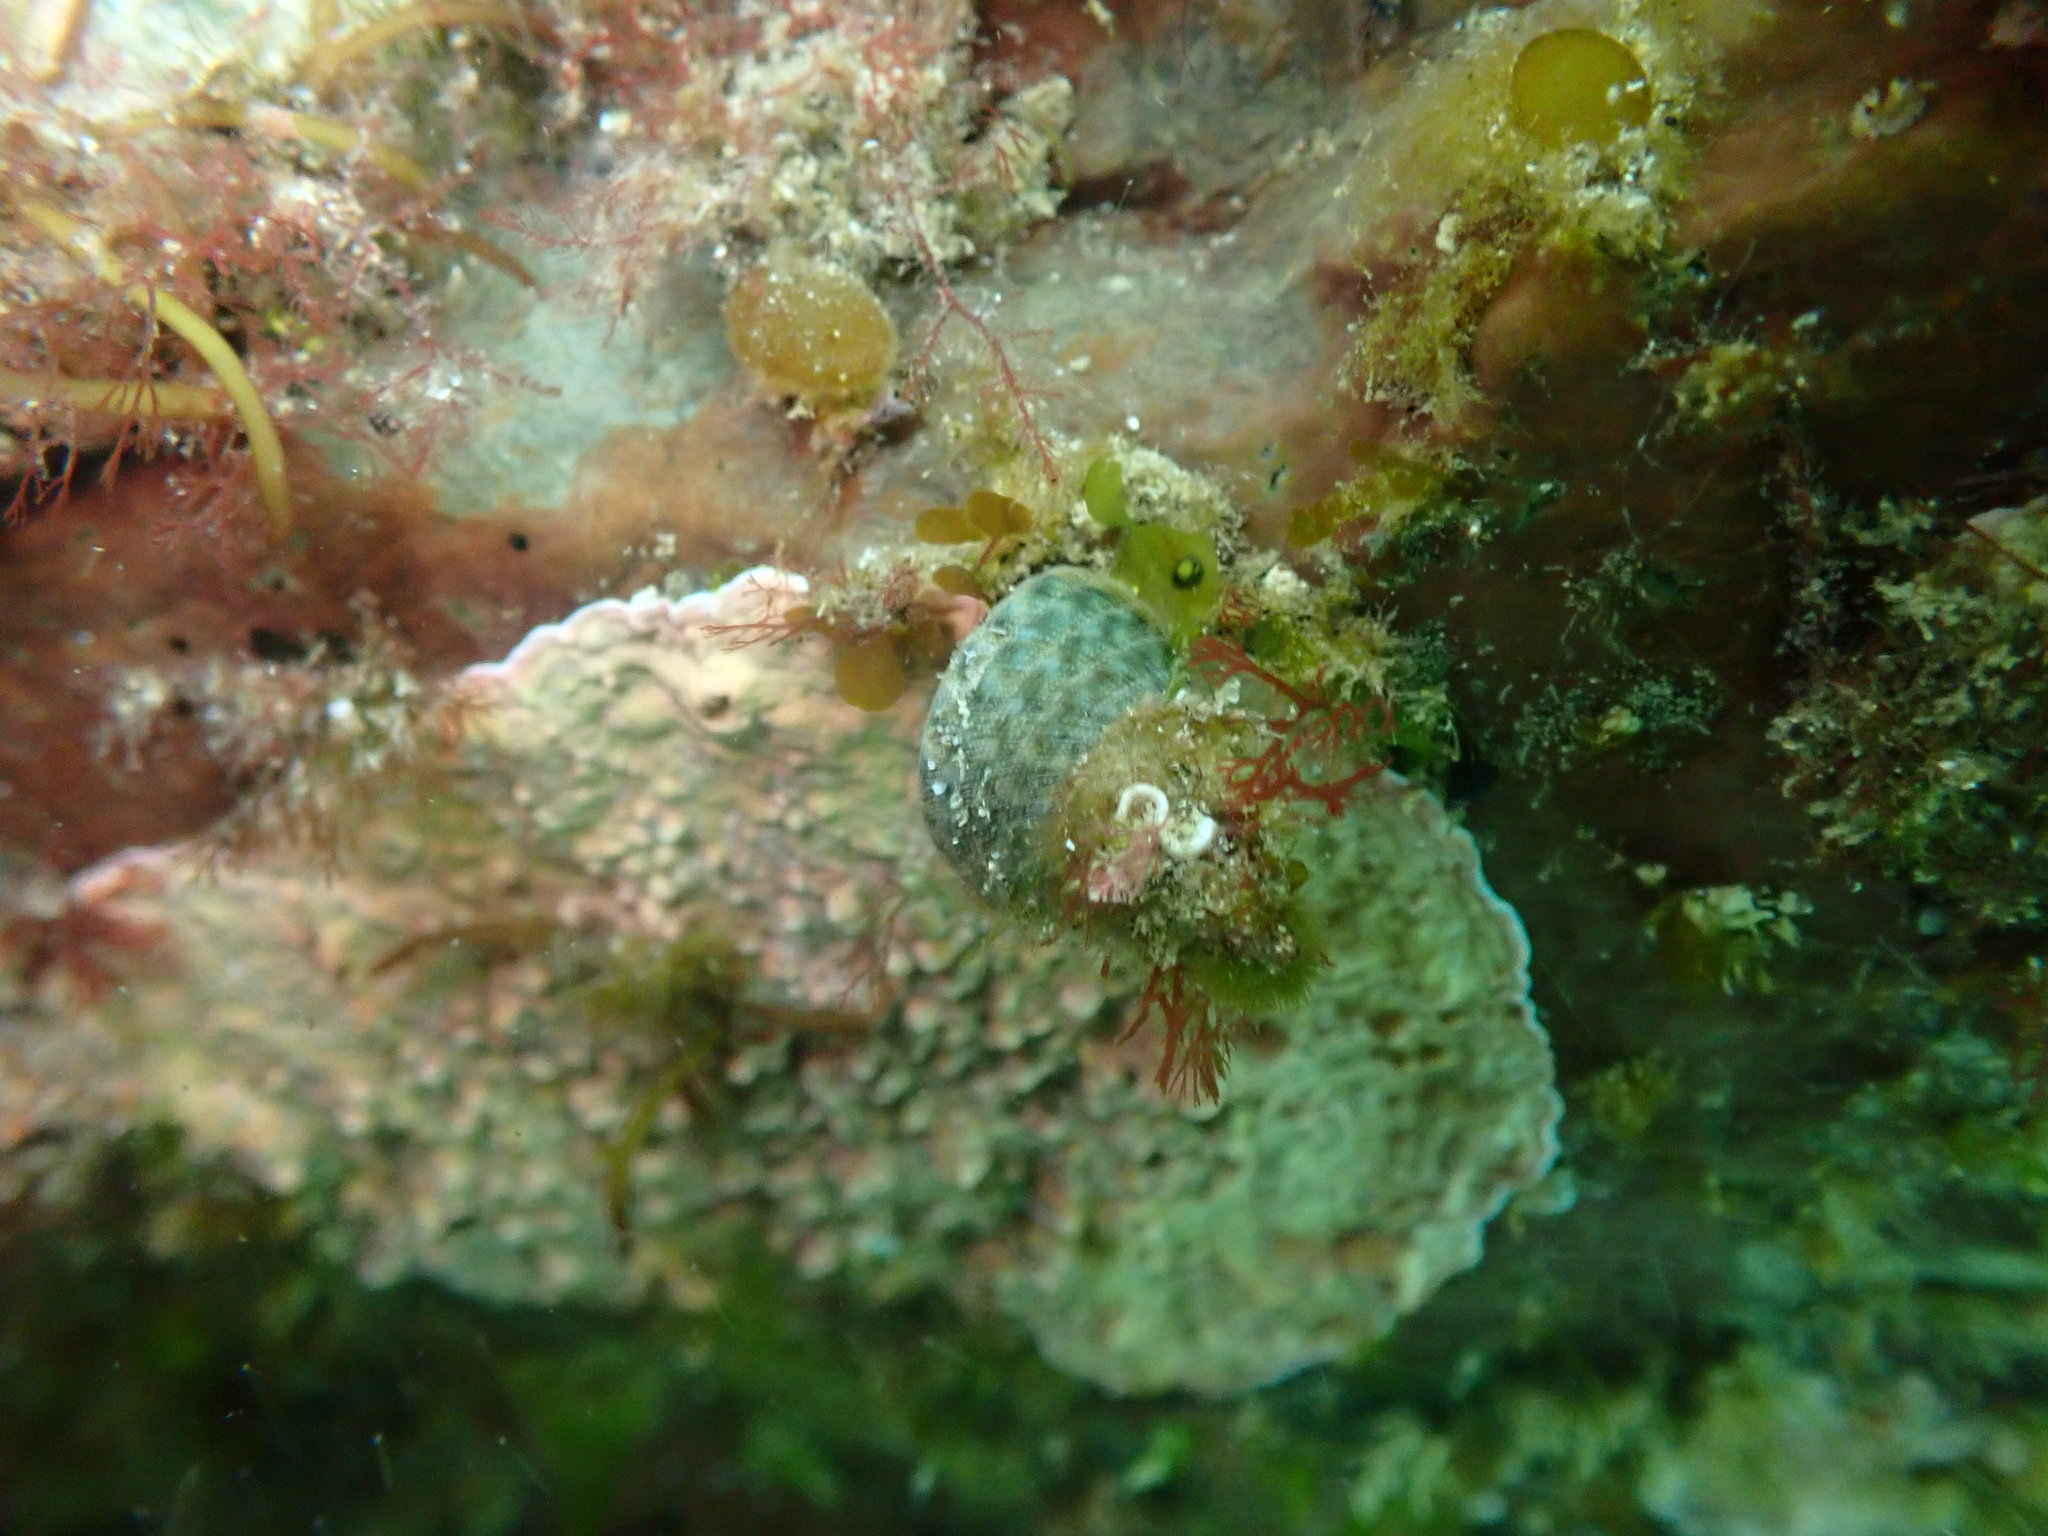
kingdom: Animalia
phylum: Mollusca
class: Gastropoda
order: Trochida
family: Trochidae
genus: Micrelenchus
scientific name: Micrelenchus purpureus
